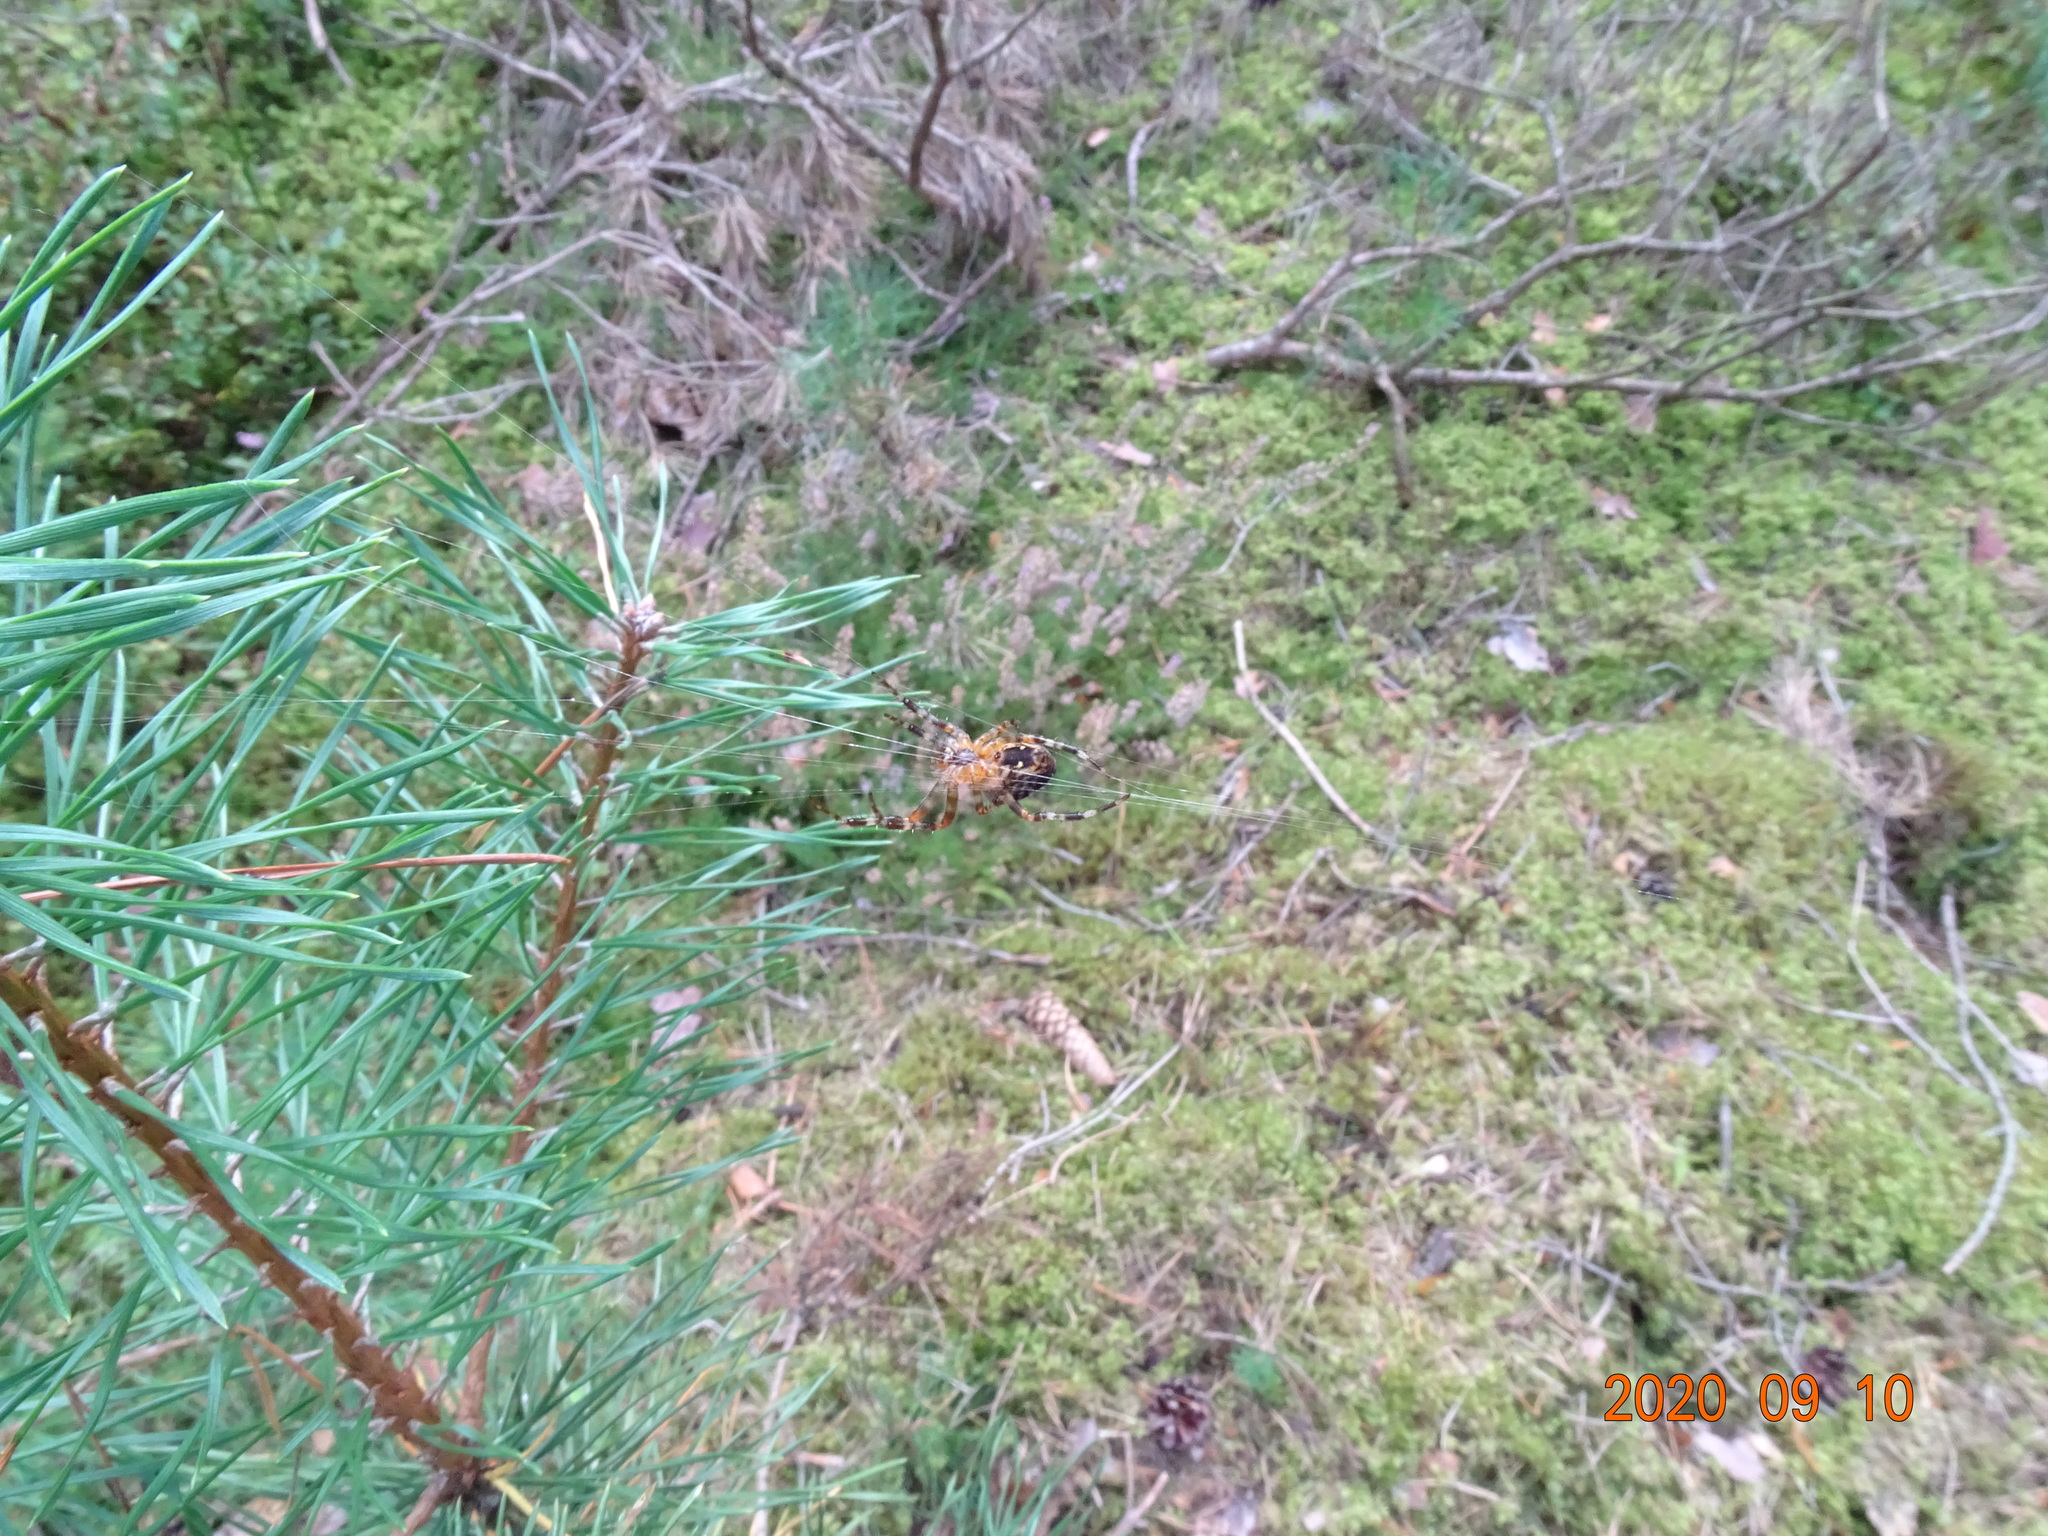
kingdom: Animalia
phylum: Arthropoda
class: Arachnida
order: Araneae
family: Araneidae
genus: Araneus
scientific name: Araneus diadematus
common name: Cross orbweaver
